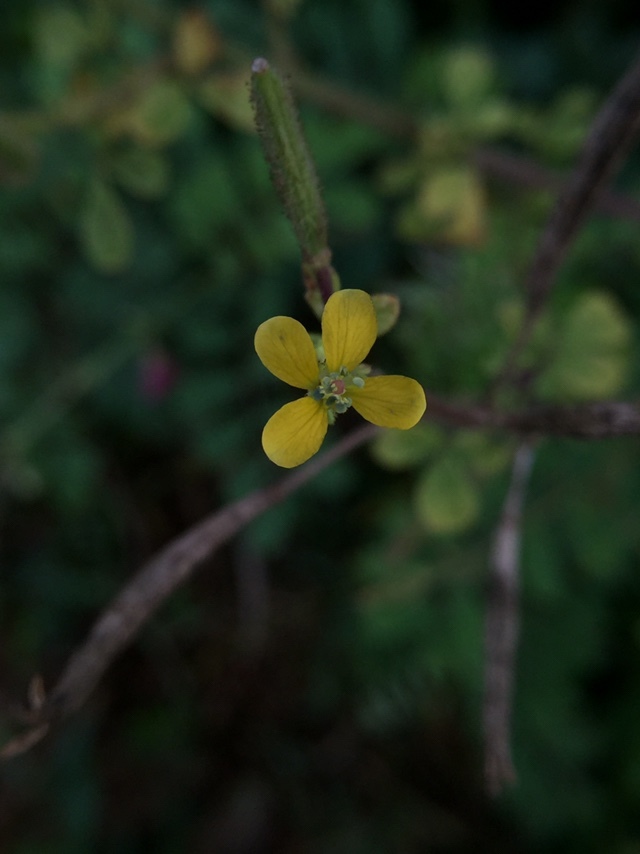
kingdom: Plantae
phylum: Tracheophyta
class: Magnoliopsida
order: Brassicales
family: Cleomaceae
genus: Arivela
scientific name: Arivela viscosa
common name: Asian spiderflower
